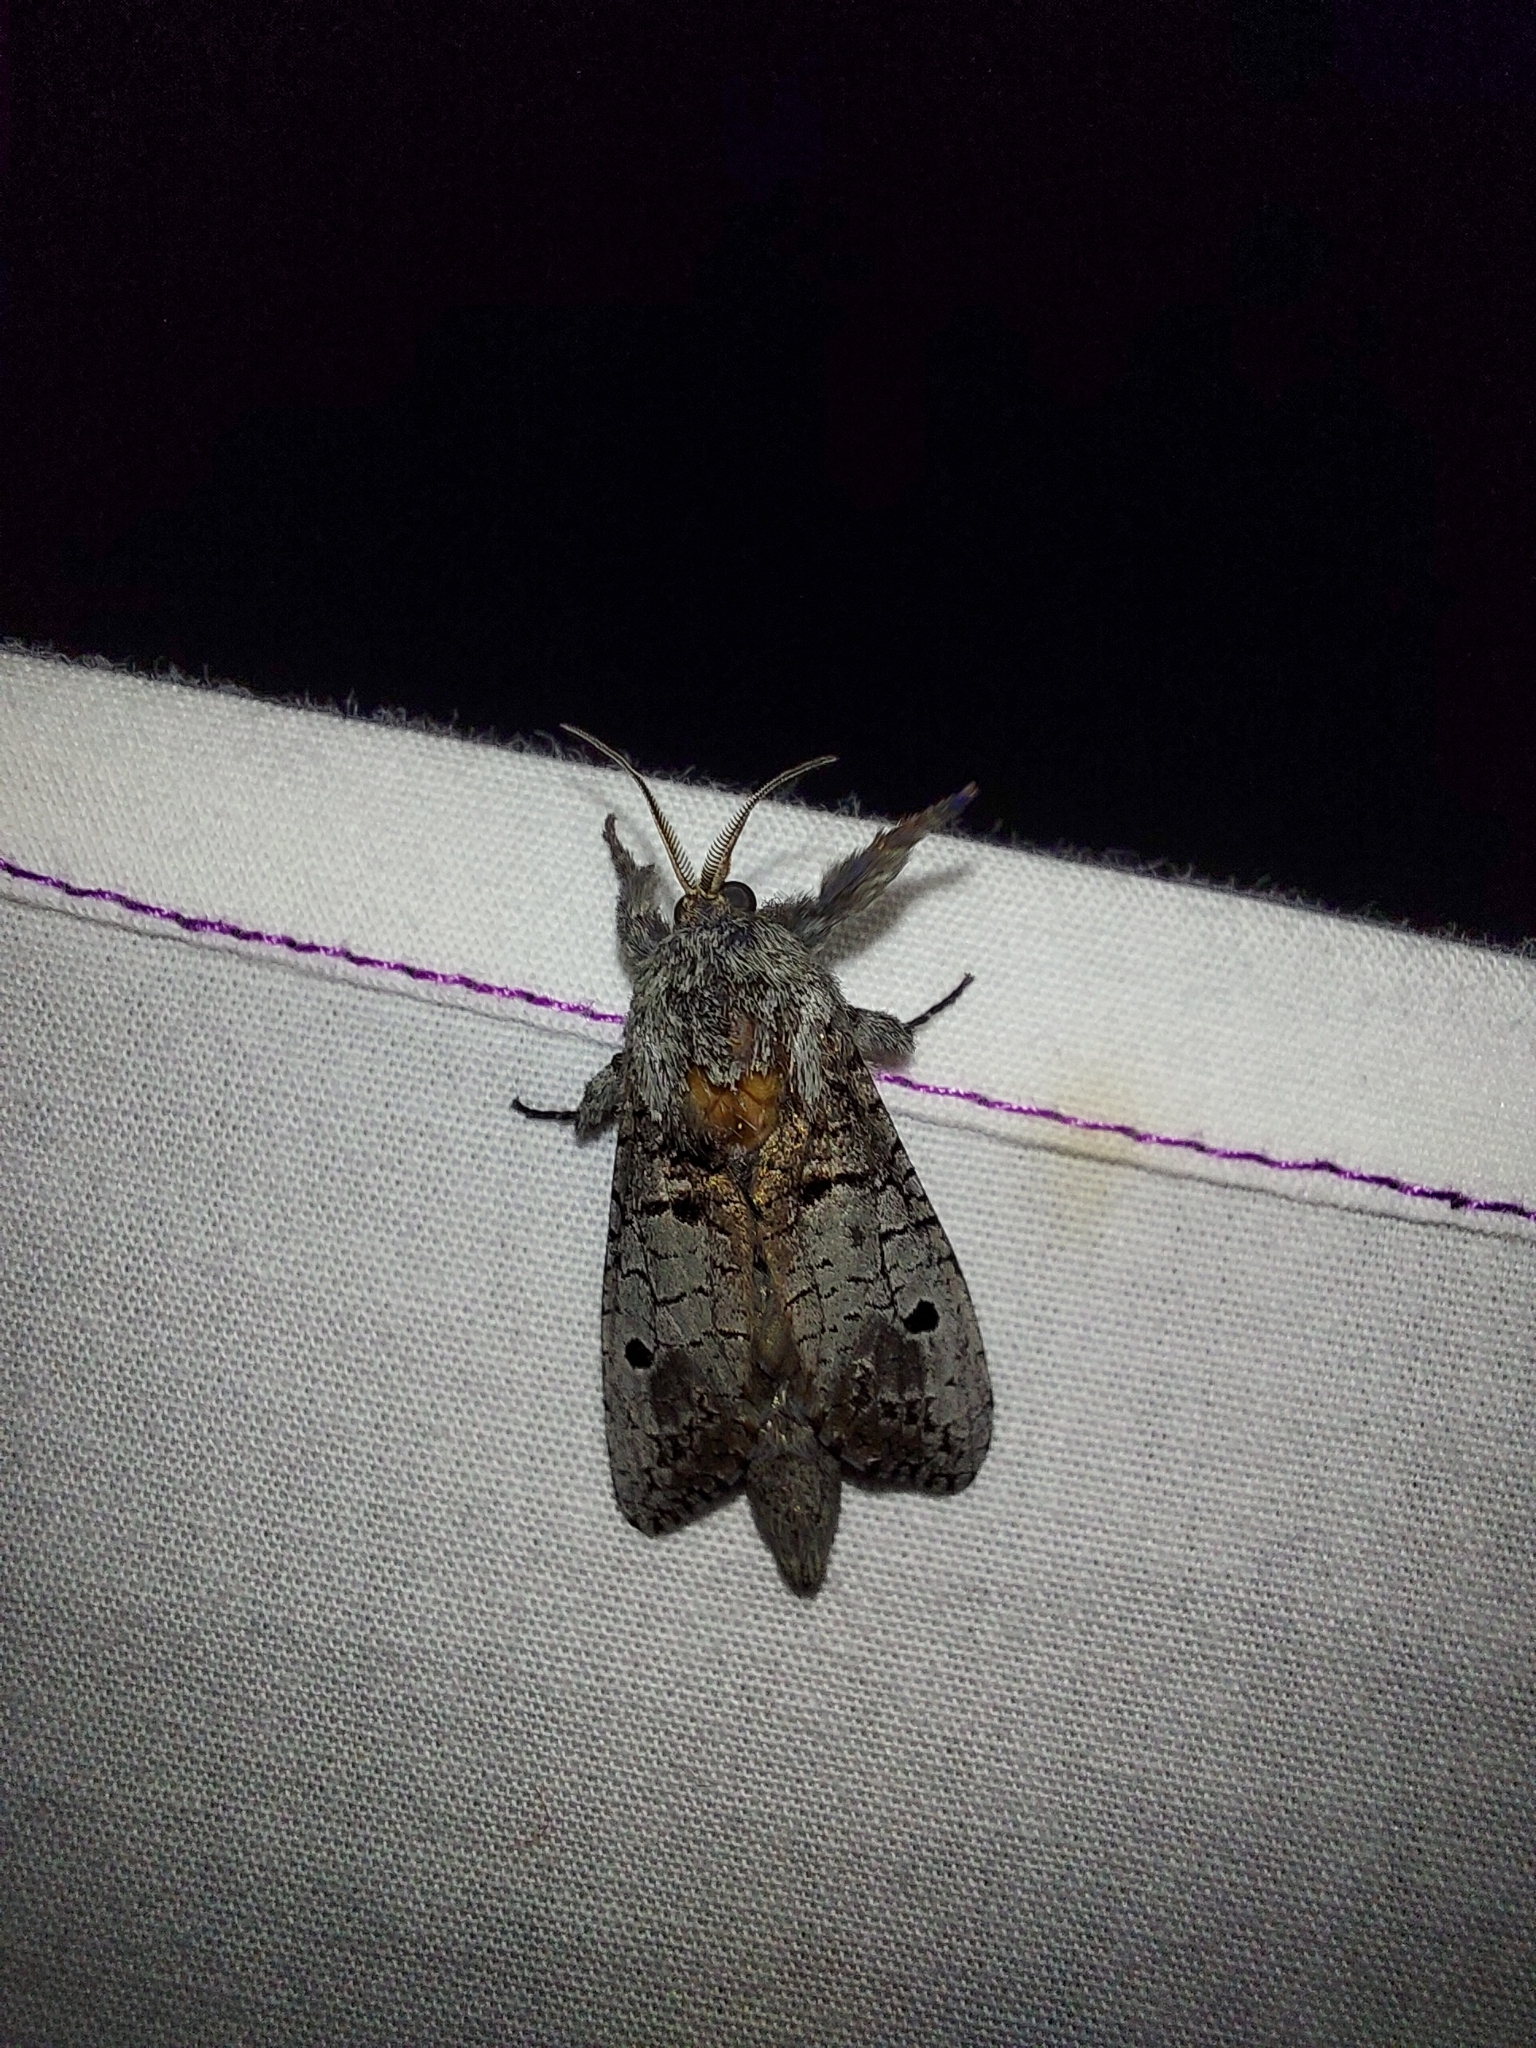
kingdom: Animalia
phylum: Arthropoda
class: Insecta
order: Lepidoptera
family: Cossidae
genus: Sympycnodes
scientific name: Sympycnodes
